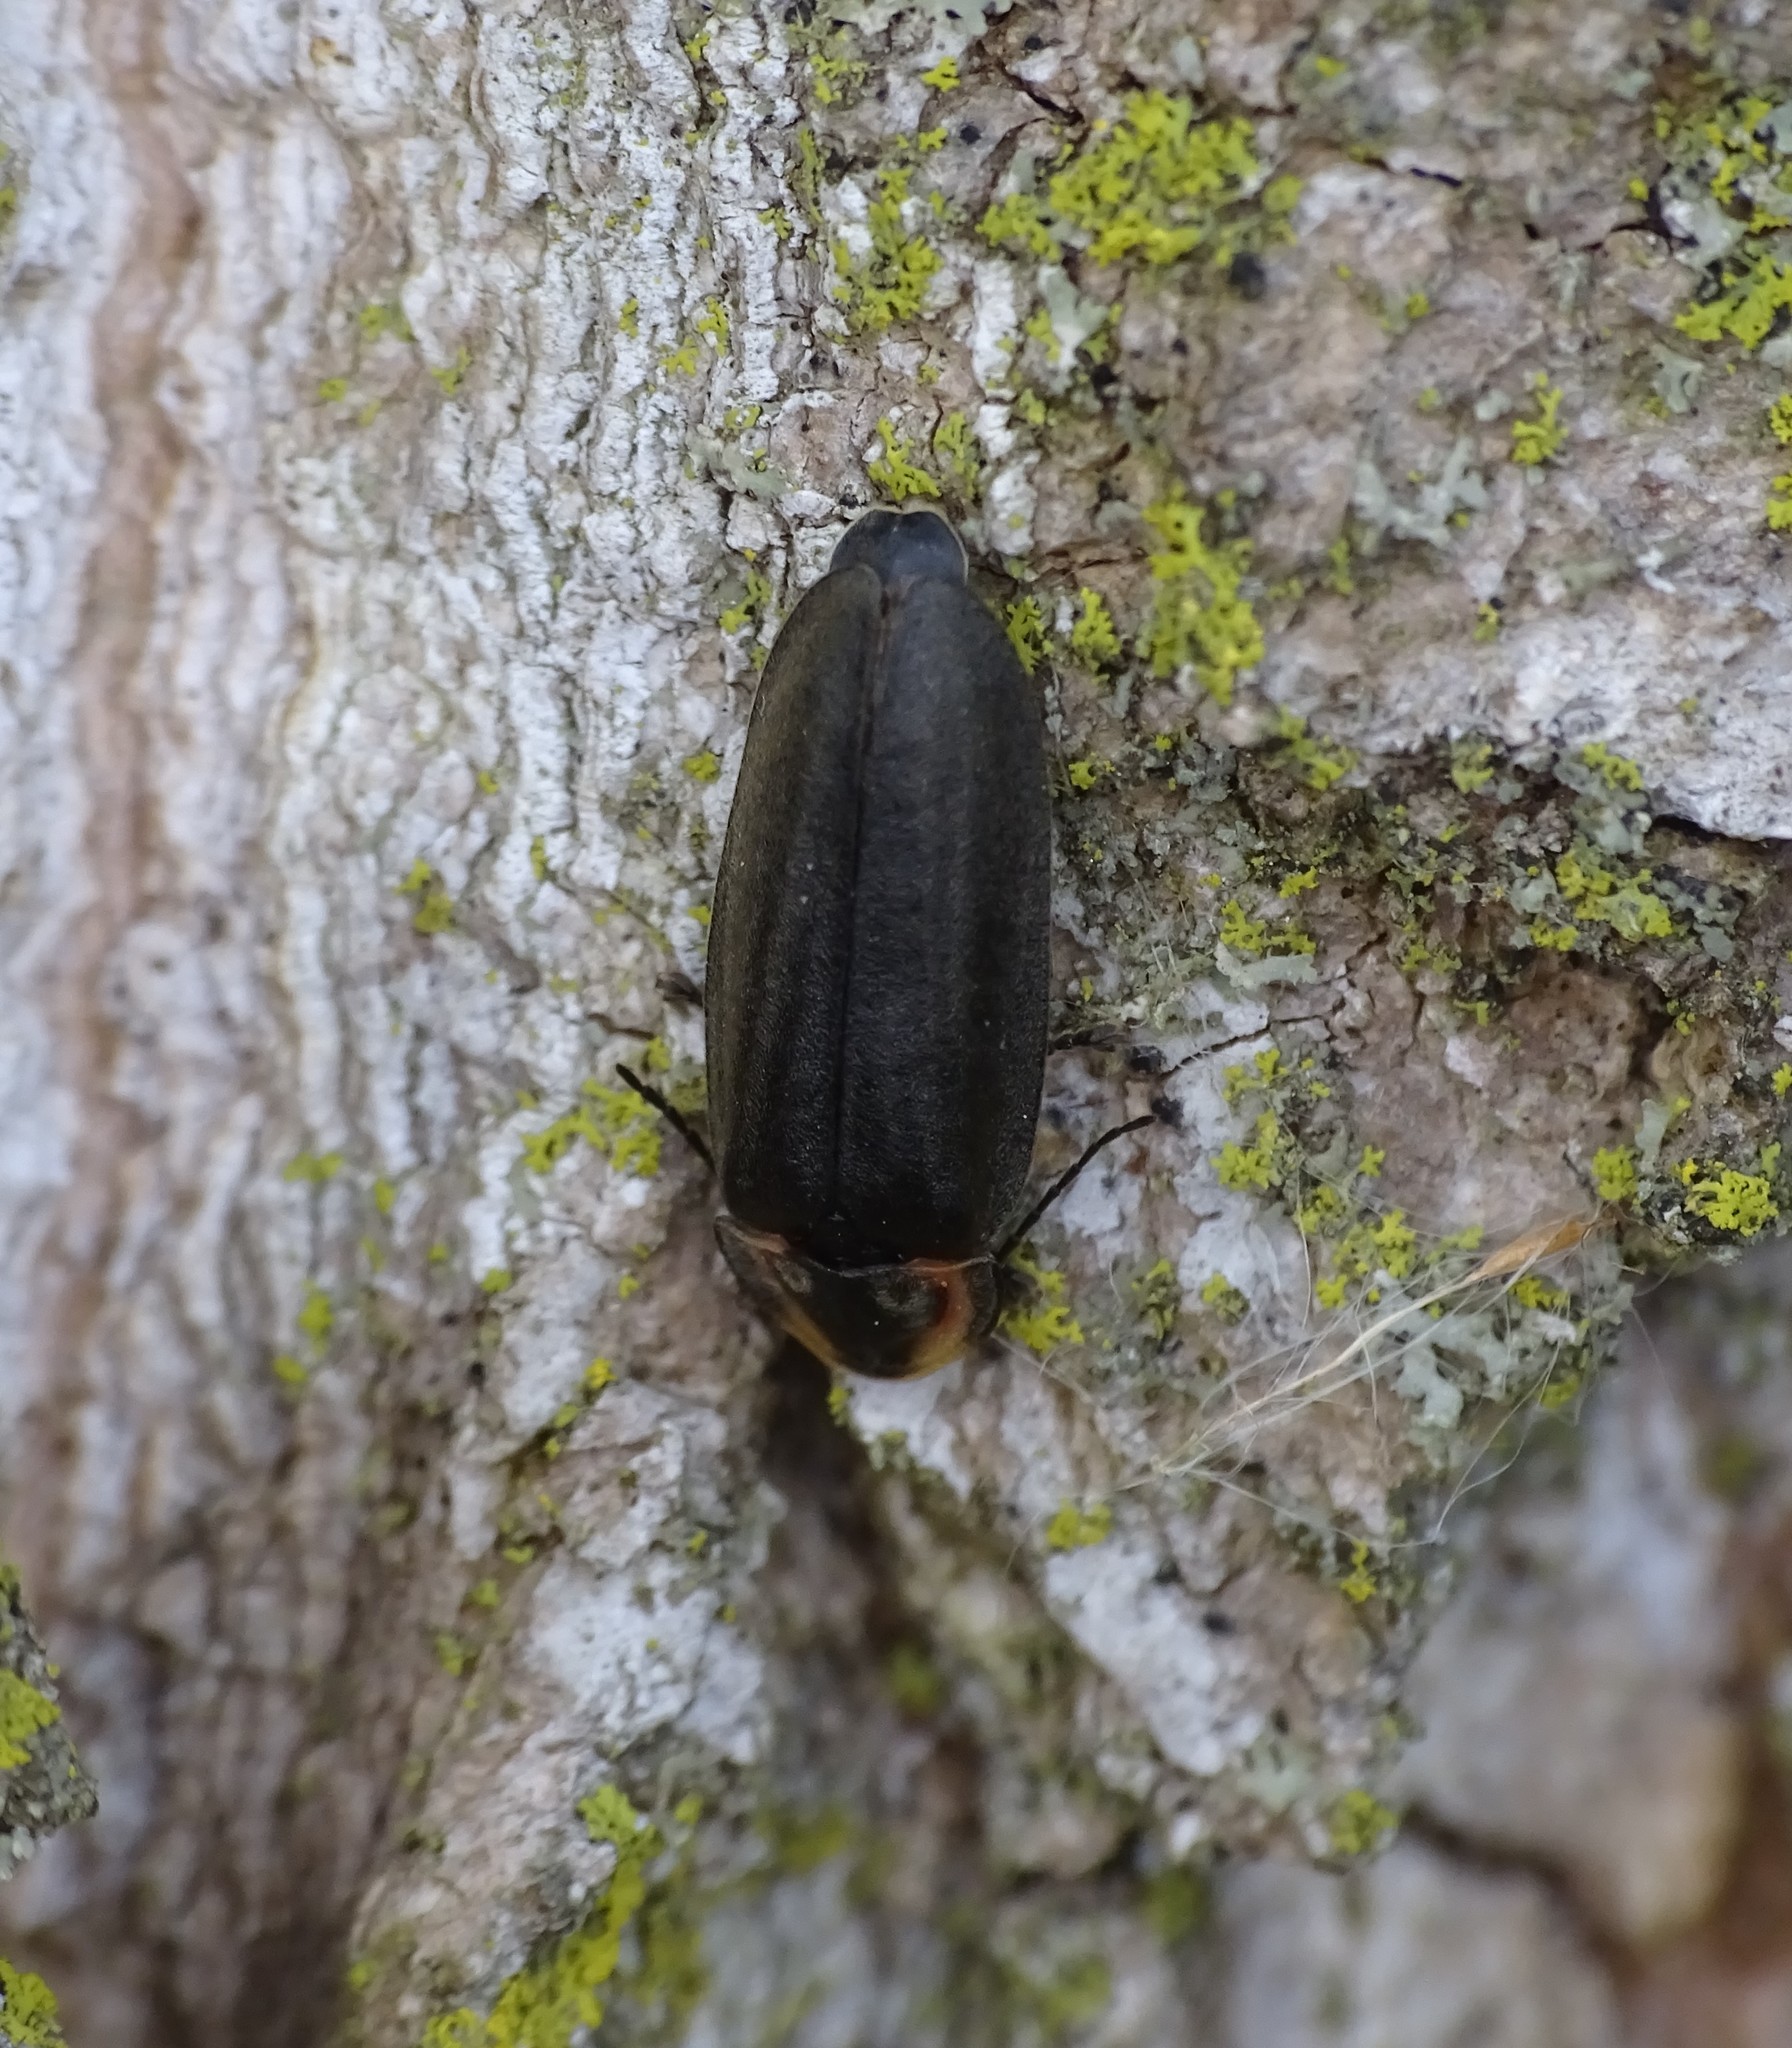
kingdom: Animalia
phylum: Arthropoda
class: Insecta
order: Coleoptera
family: Lampyridae
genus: Photinus
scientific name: Photinus corrusca
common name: Winter firefly
